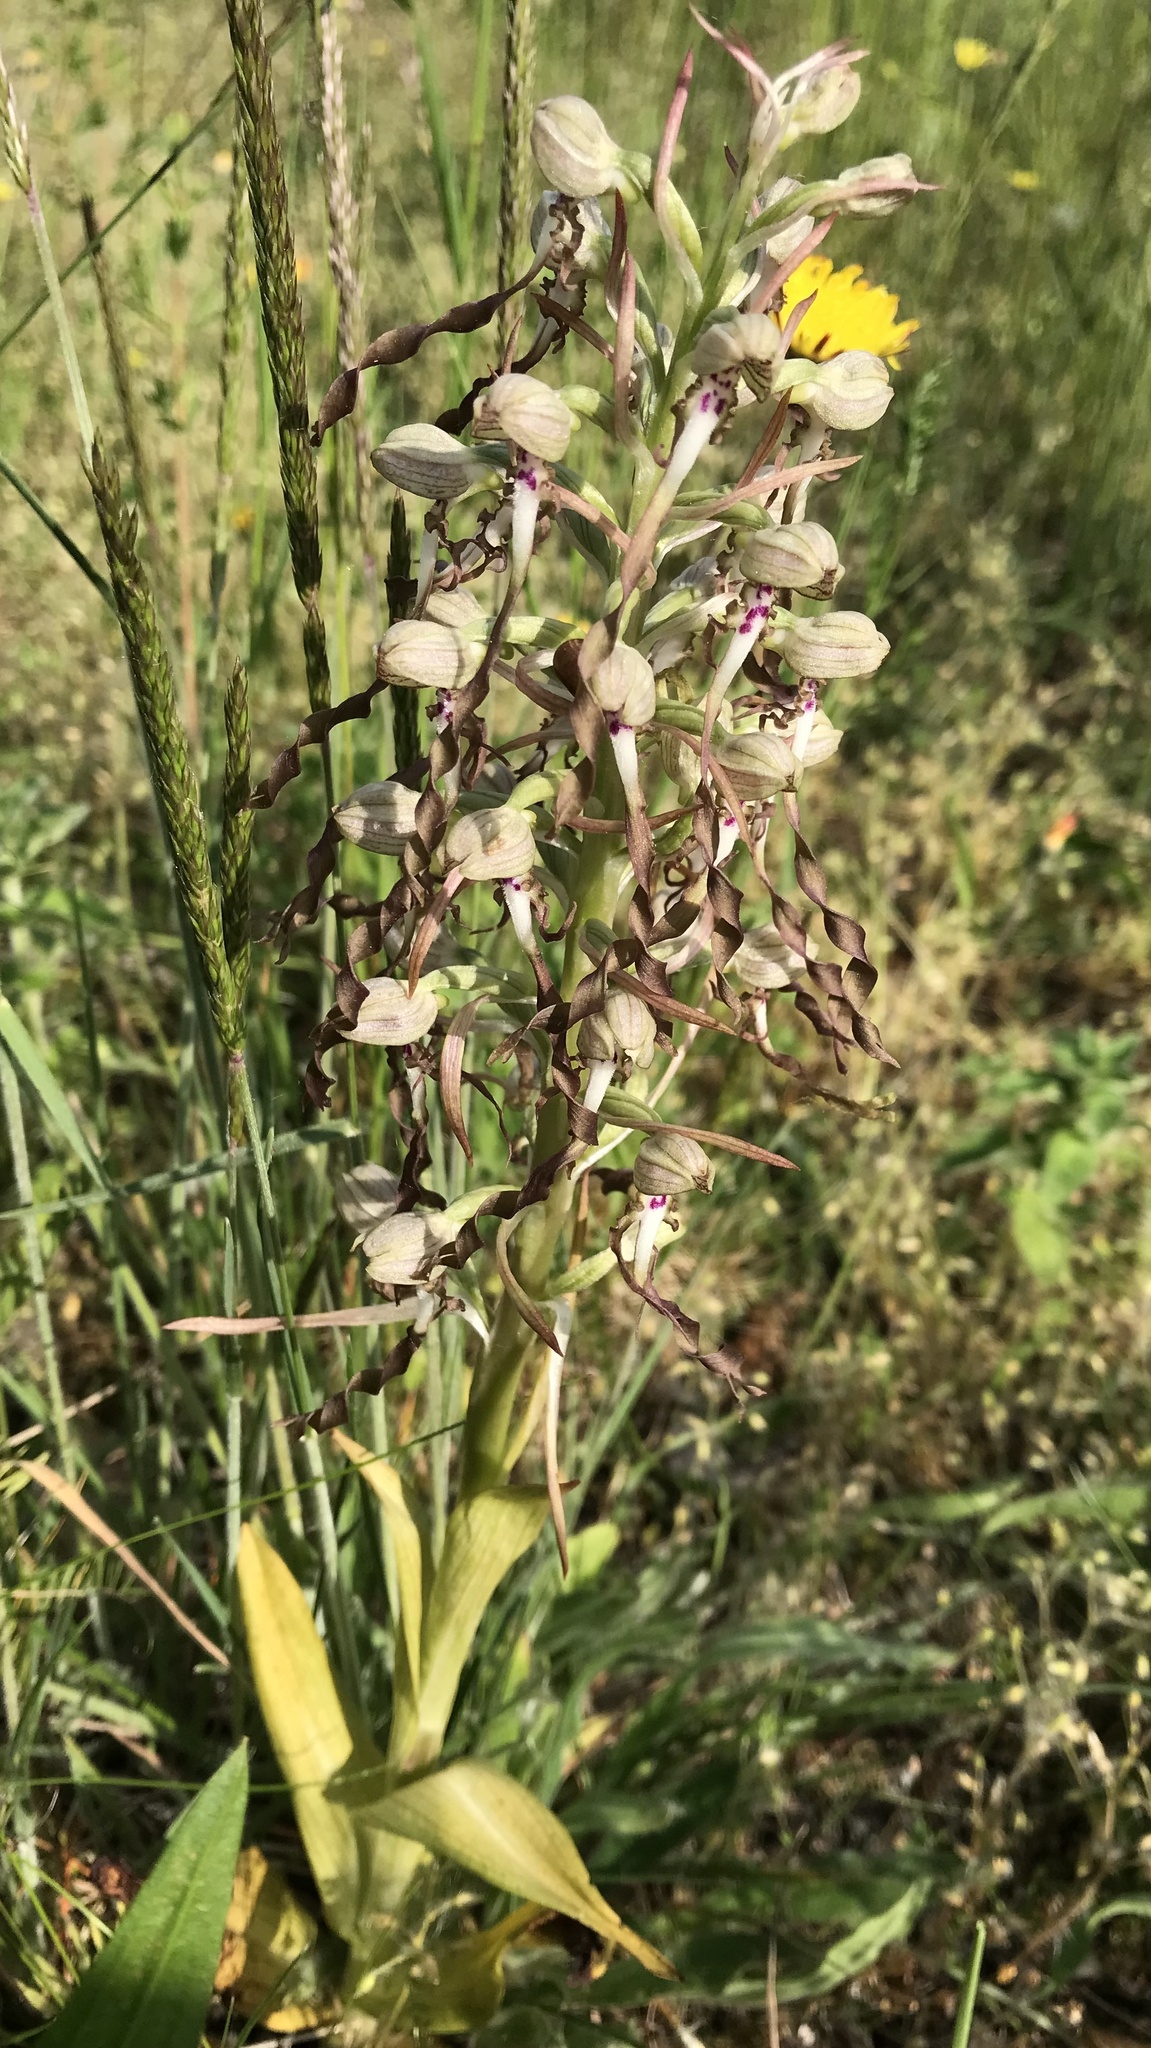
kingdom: Plantae
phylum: Tracheophyta
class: Liliopsida
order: Asparagales
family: Orchidaceae
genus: Himantoglossum
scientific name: Himantoglossum hircinum
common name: Lizard orchid
